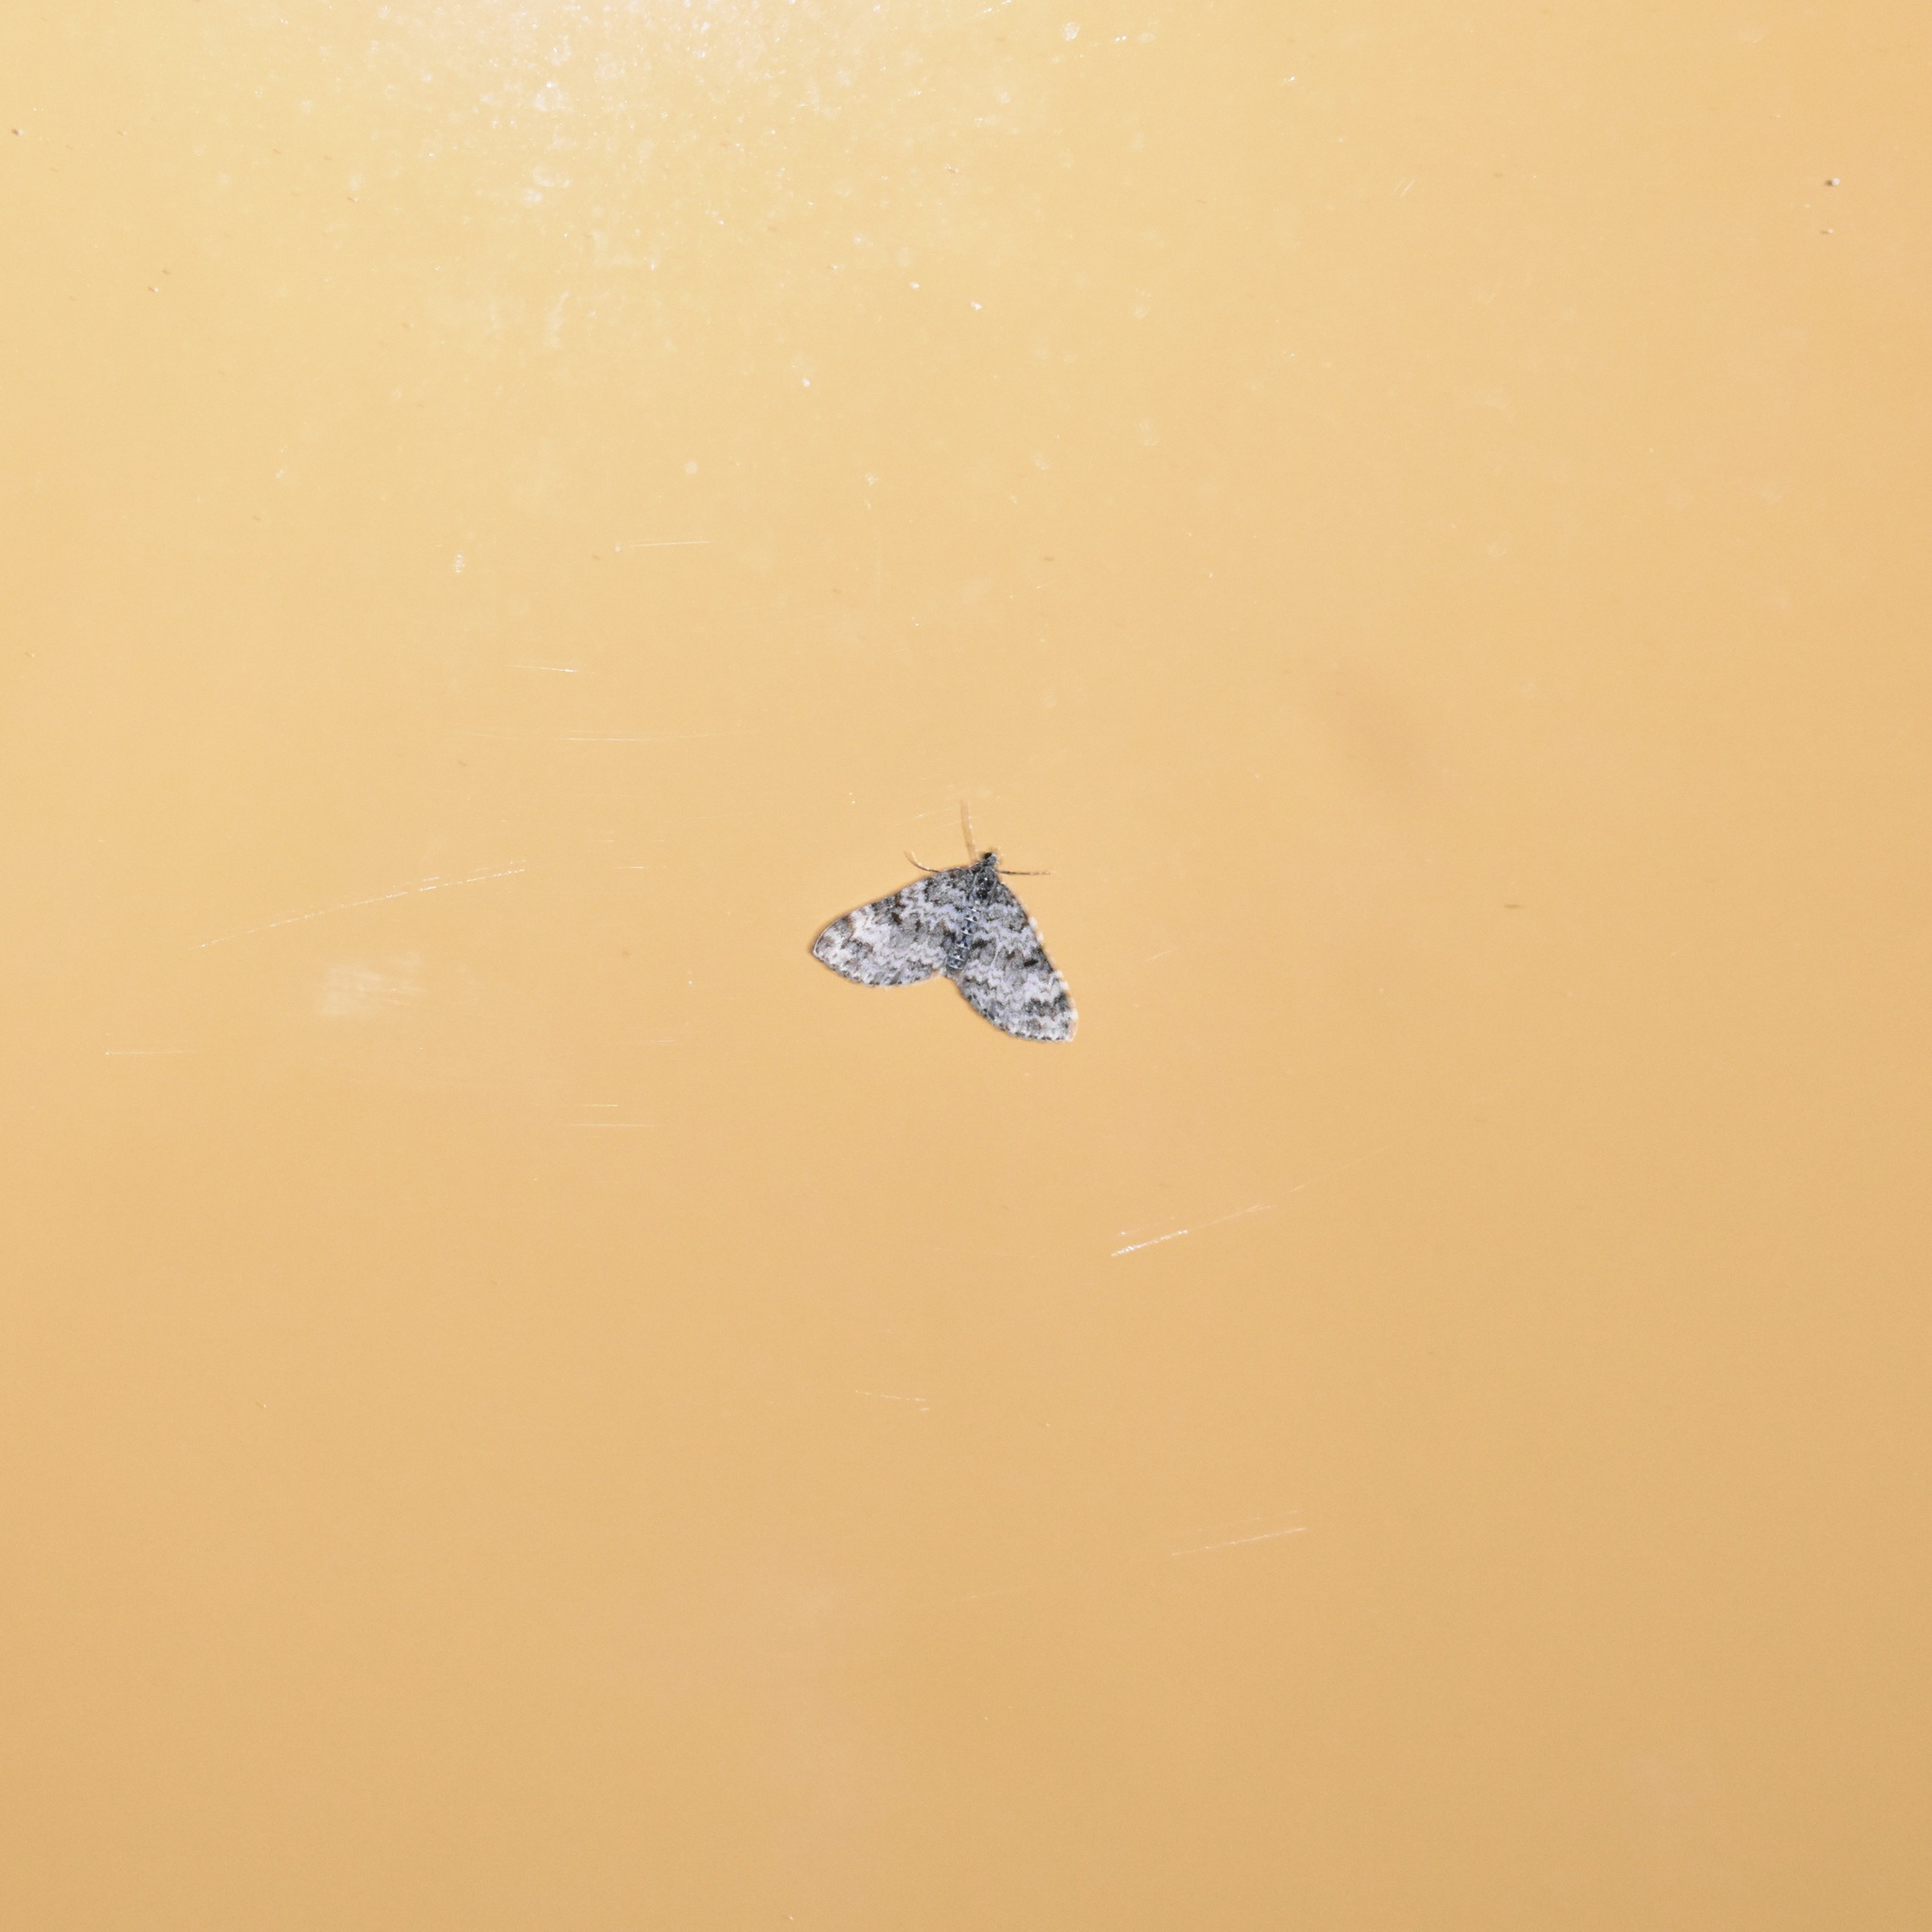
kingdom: Animalia
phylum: Arthropoda
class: Insecta
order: Lepidoptera
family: Geometridae
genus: Spargania
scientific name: Spargania magnoliata
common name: Double-banded carpet
